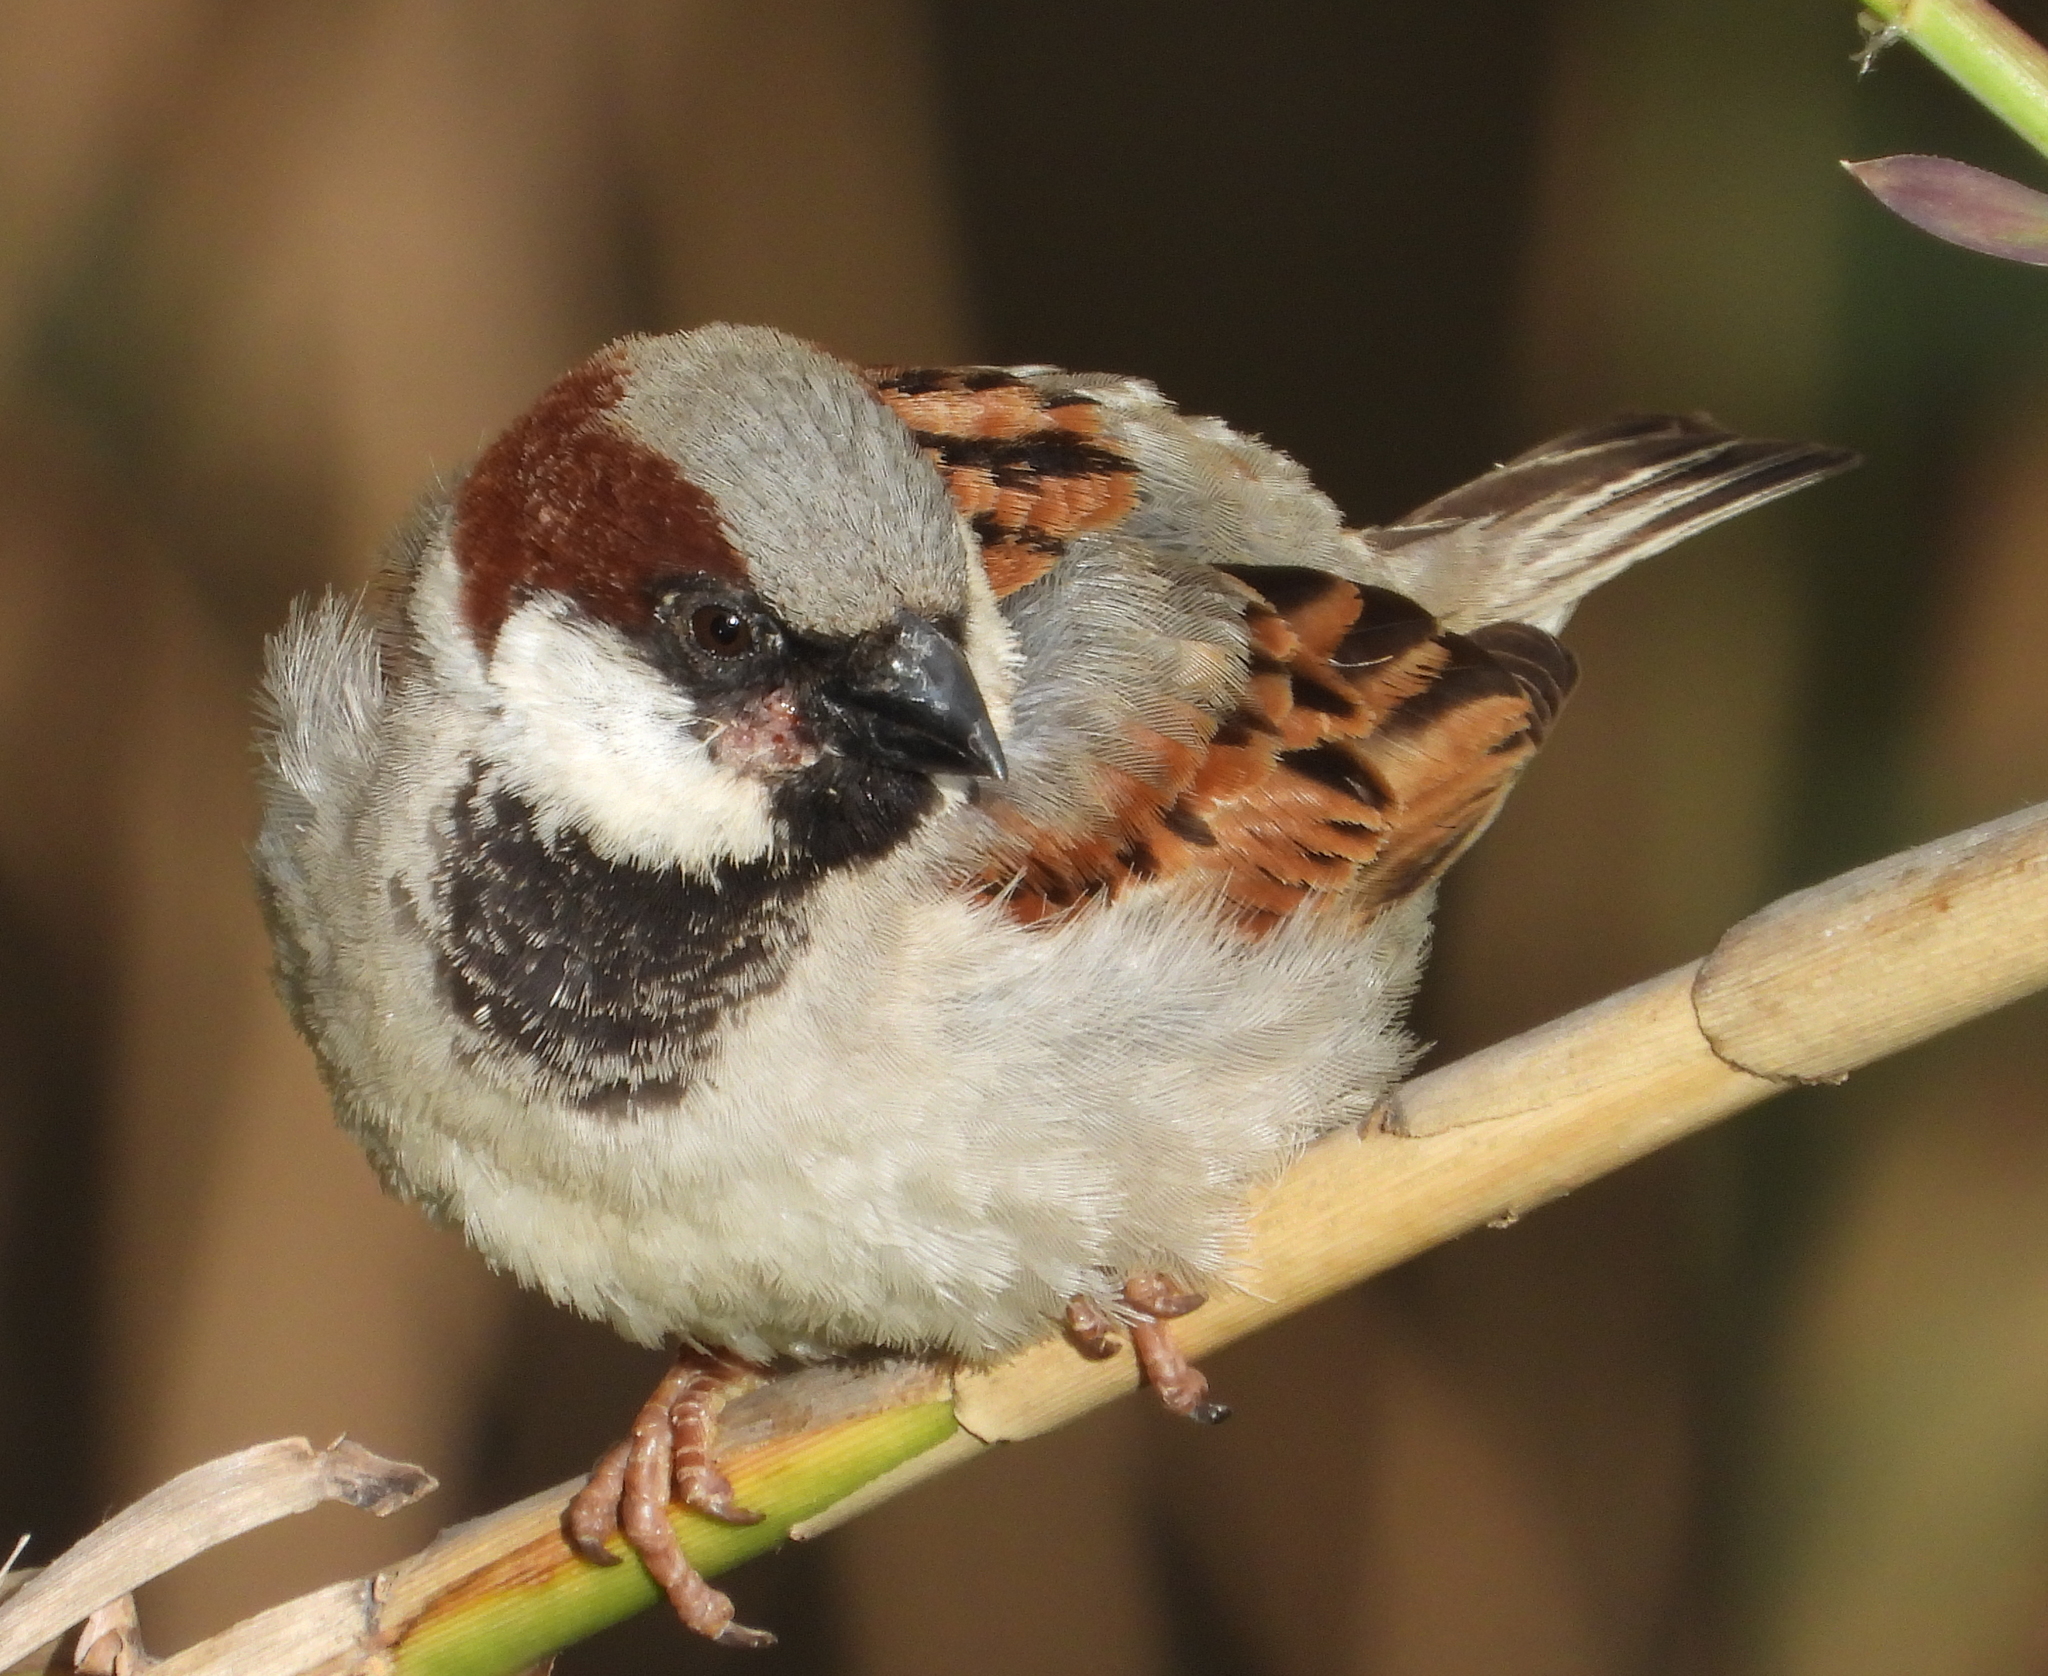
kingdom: Animalia
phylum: Chordata
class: Aves
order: Passeriformes
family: Passeridae
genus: Passer
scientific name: Passer domesticus
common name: House sparrow
